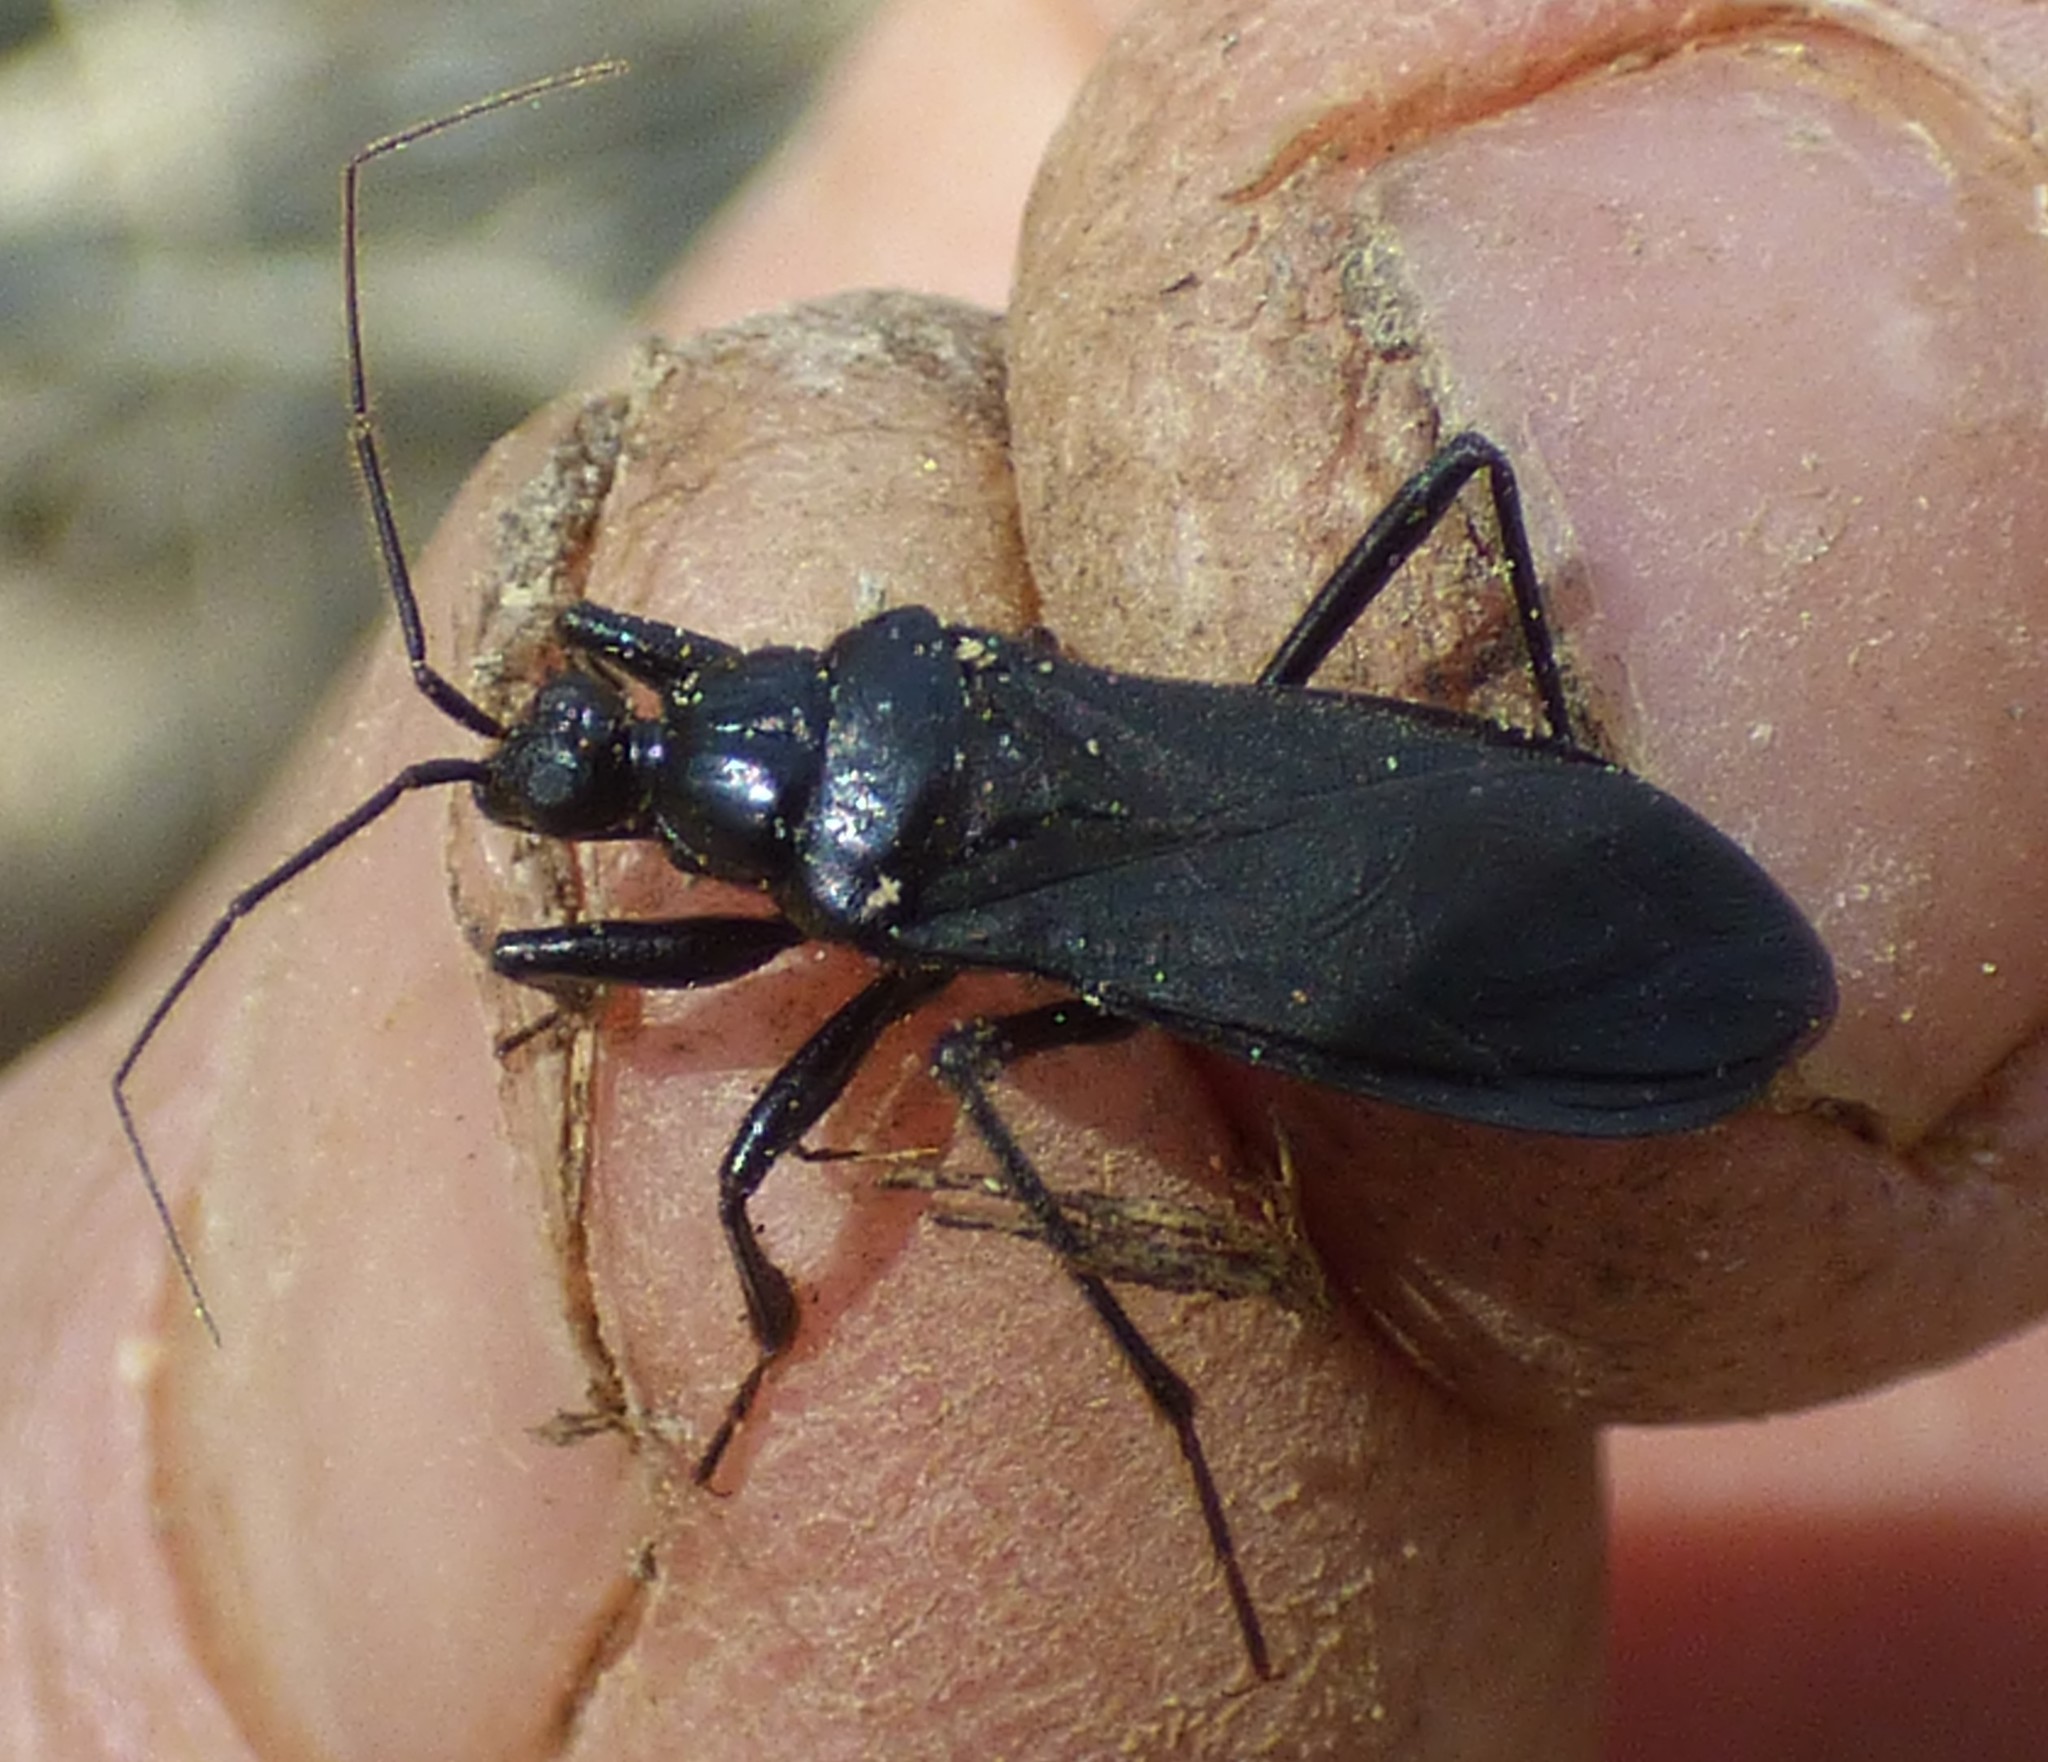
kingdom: Animalia
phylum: Arthropoda
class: Insecta
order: Hemiptera
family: Reduviidae
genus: Melanolestes
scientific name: Melanolestes picipes
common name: Assassin bug
